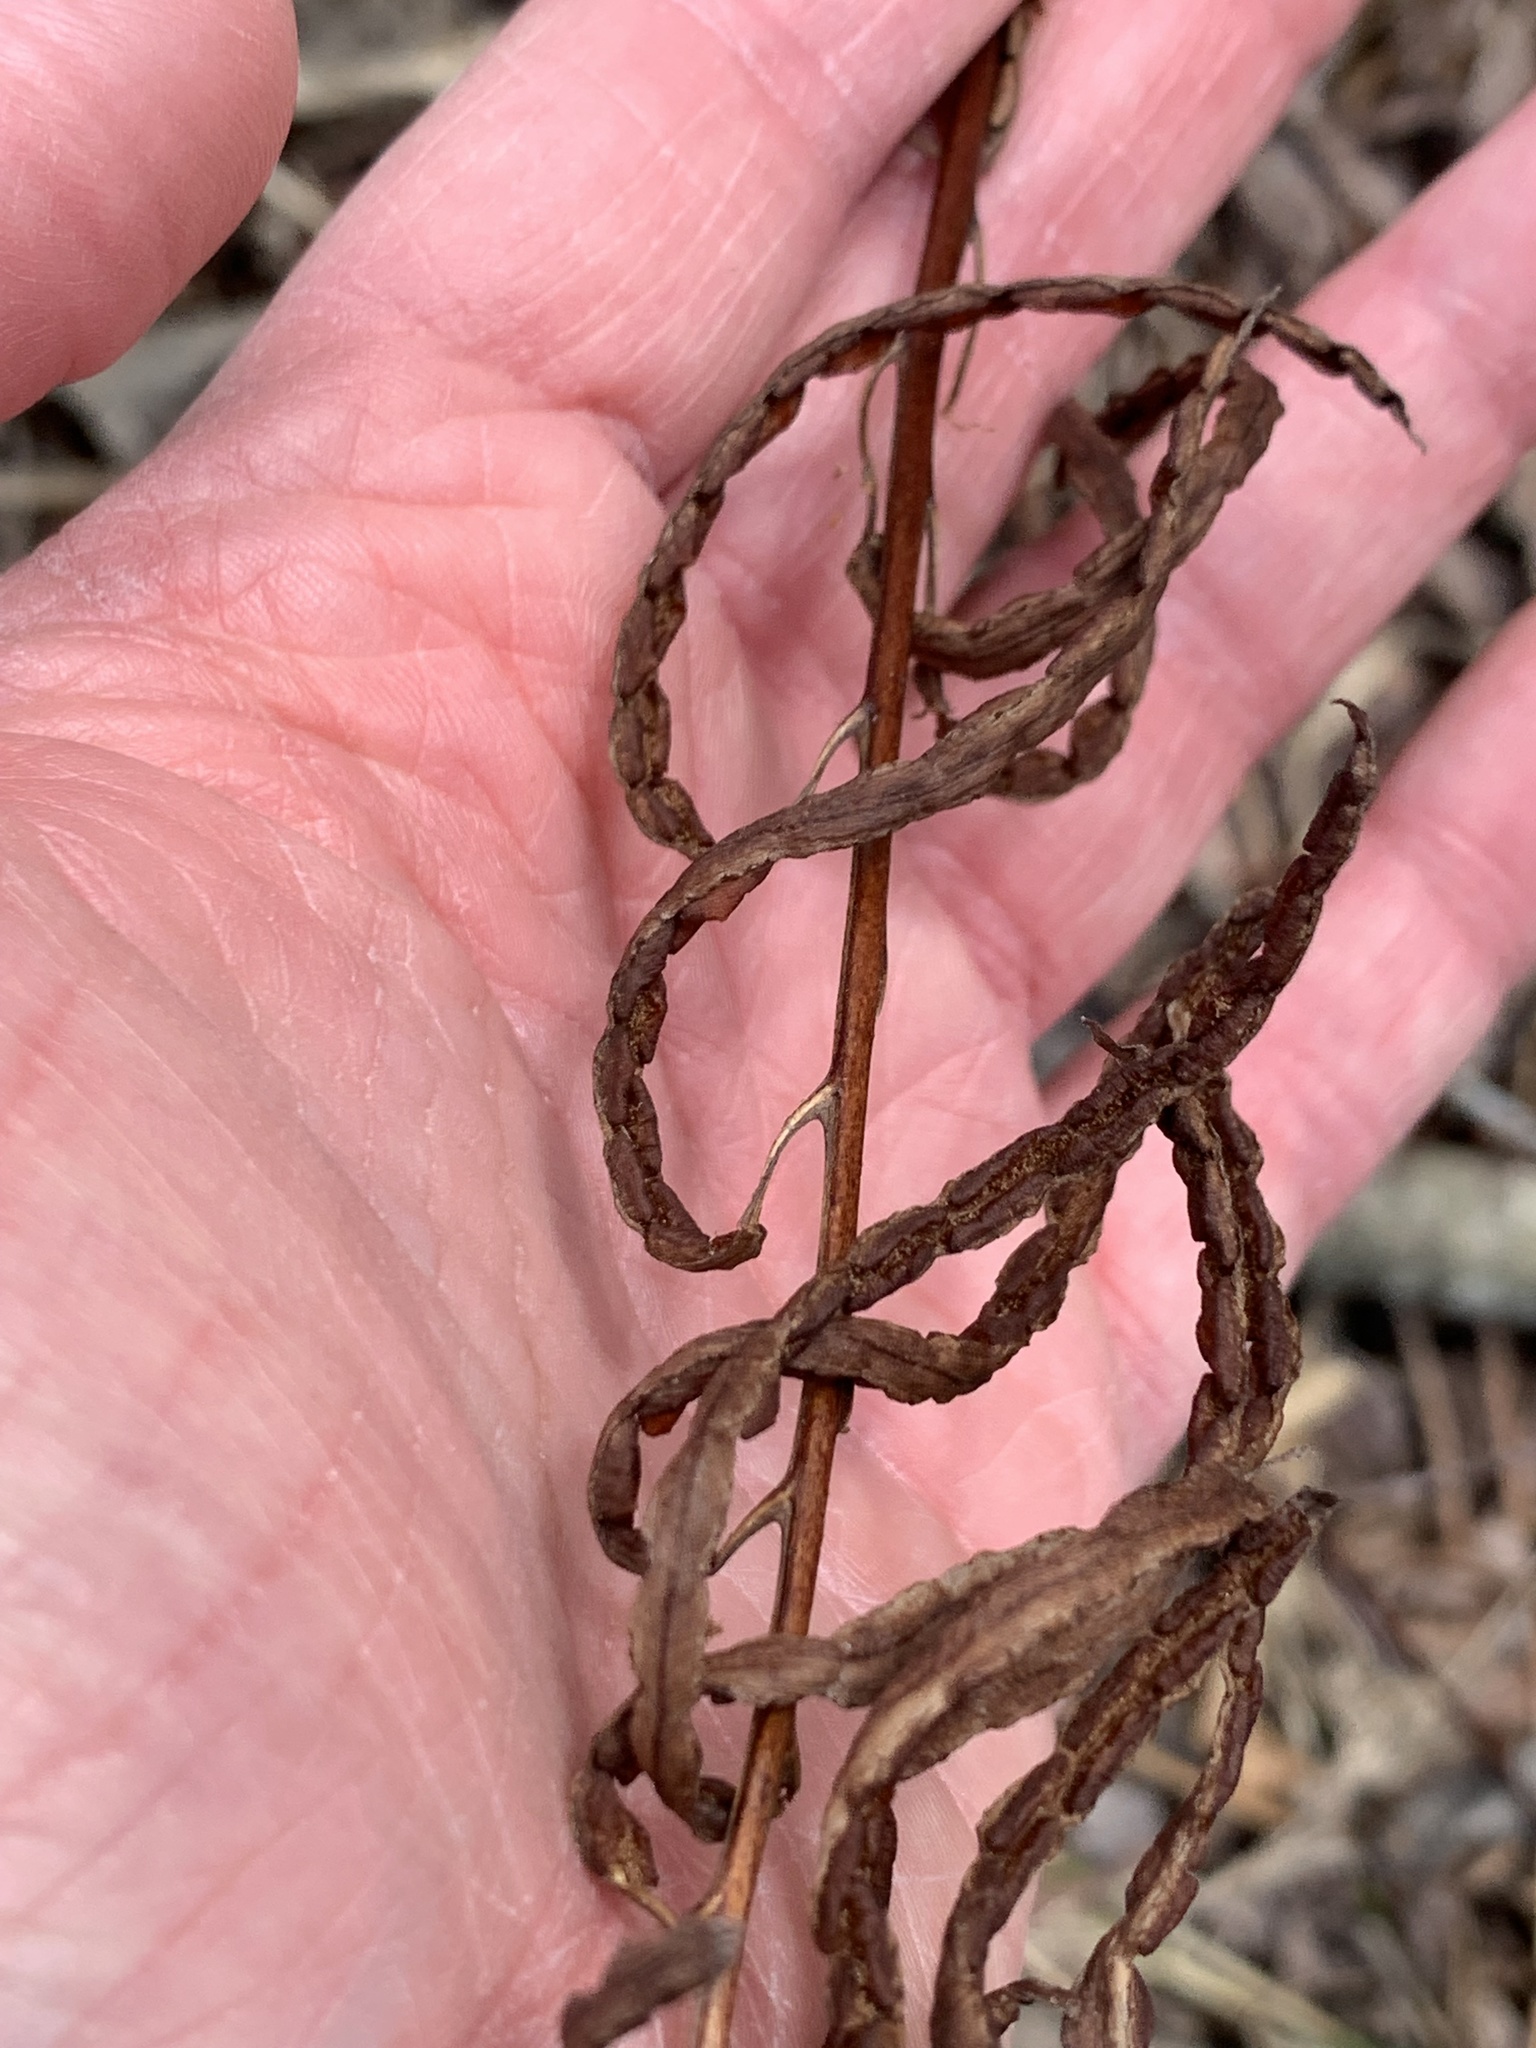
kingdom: Plantae
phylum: Tracheophyta
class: Polypodiopsida
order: Polypodiales
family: Blechnaceae
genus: Lorinseria
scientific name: Lorinseria areolata
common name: Dwarf chain fern
